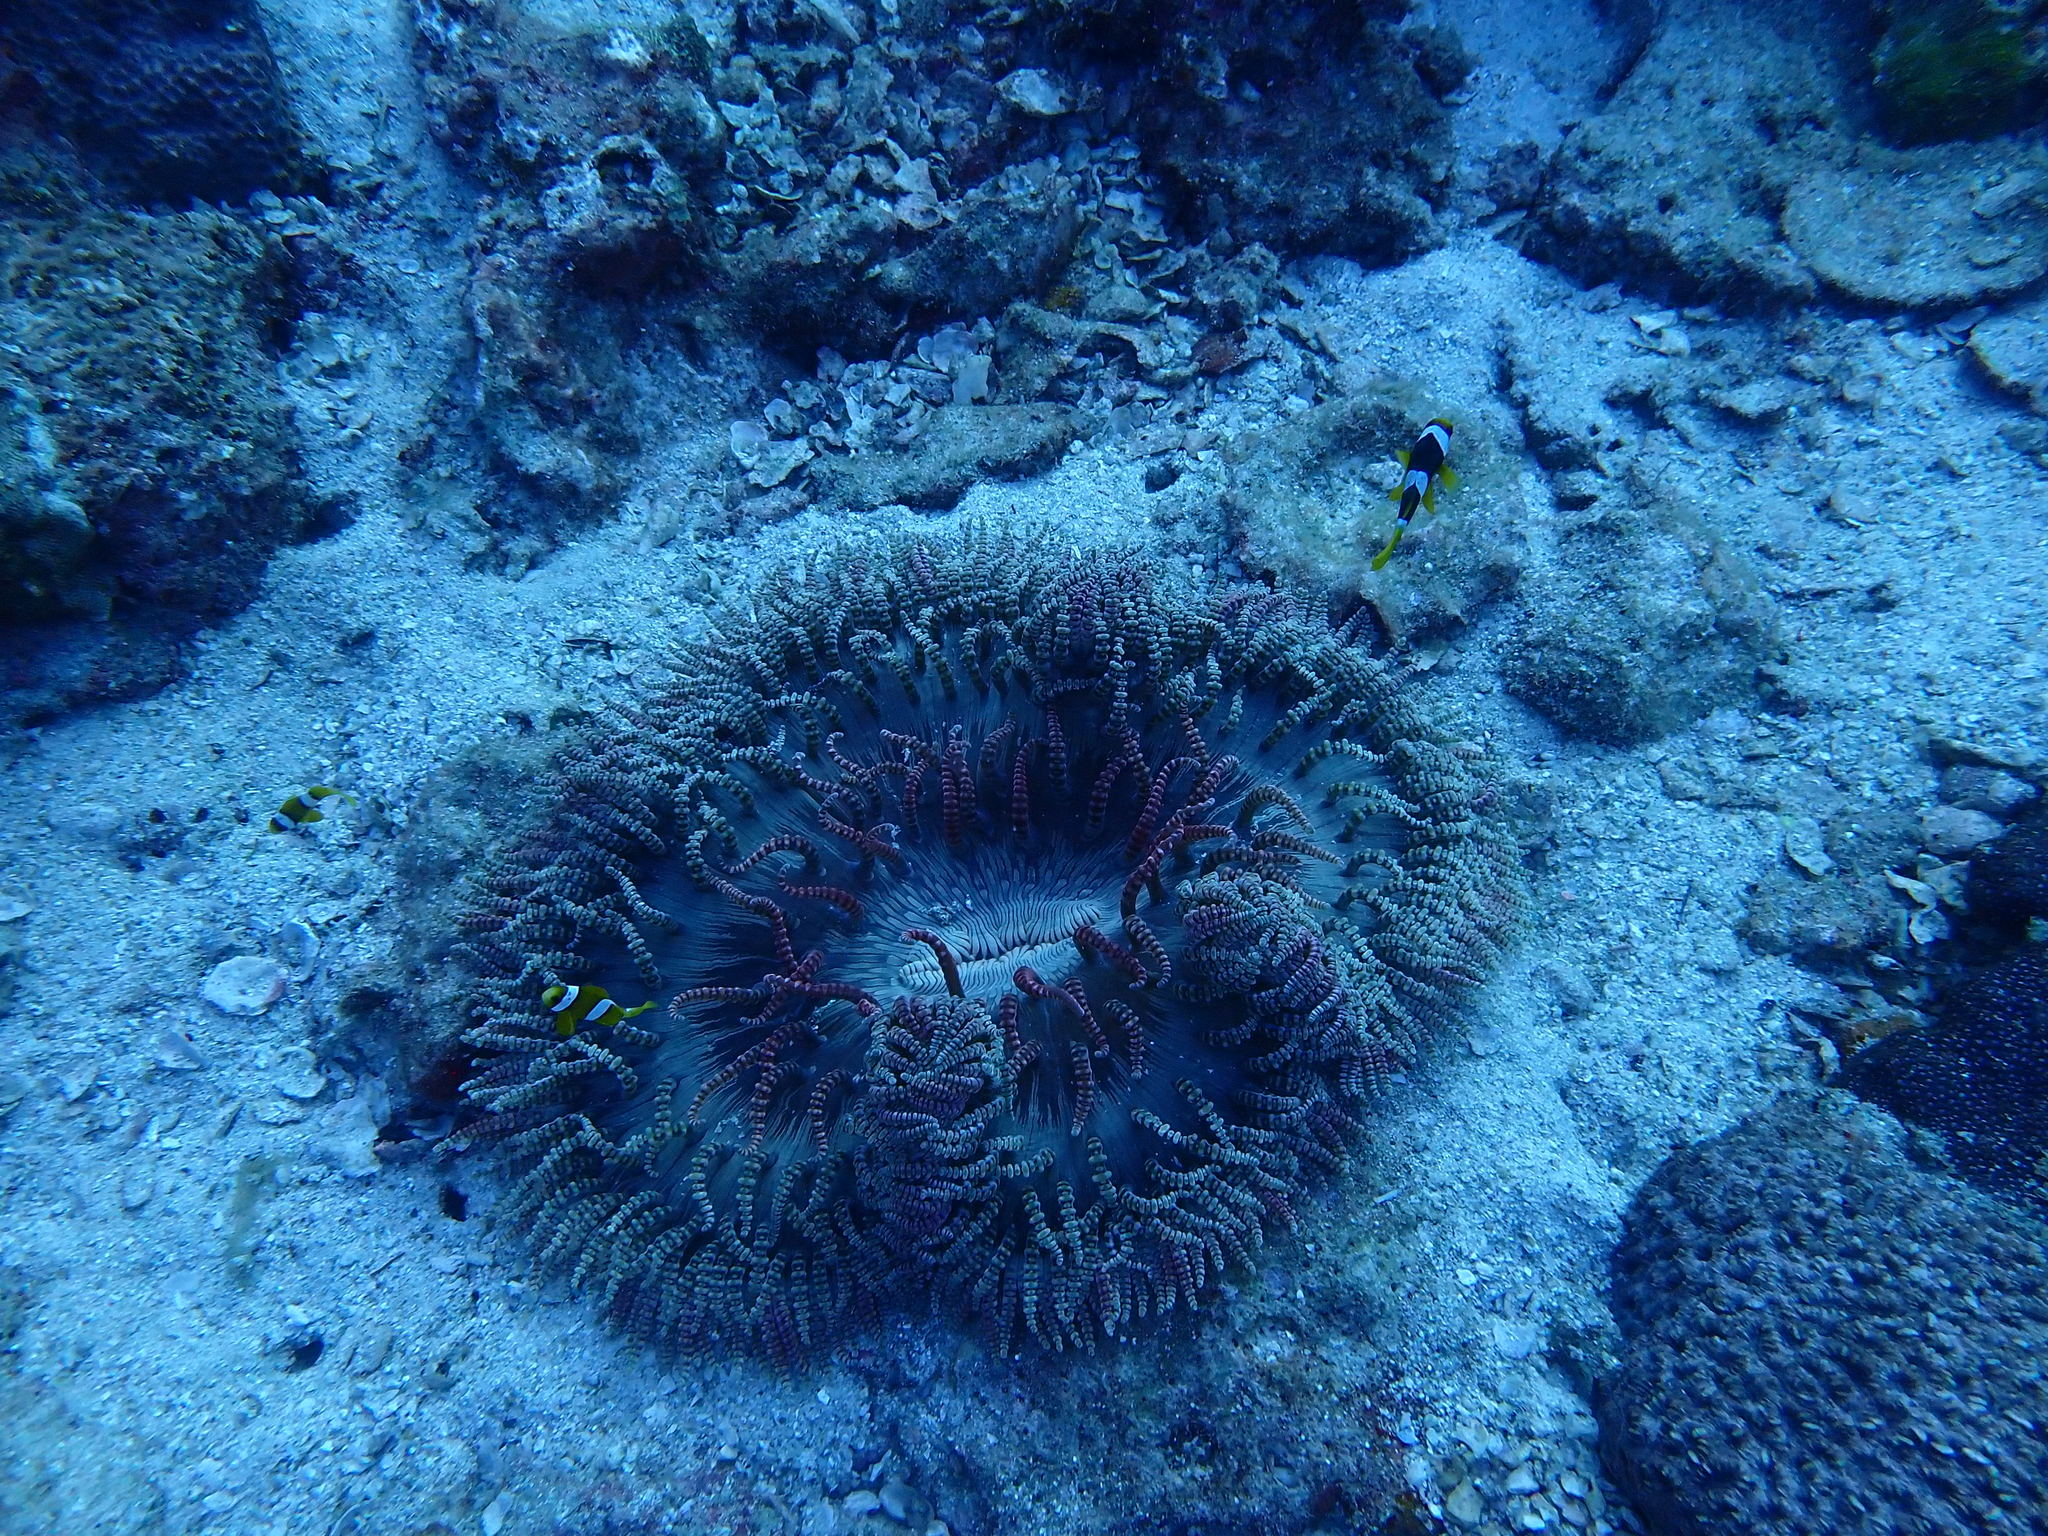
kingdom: Animalia
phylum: Cnidaria
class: Anthozoa
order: Actiniaria
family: Heteractidae
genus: Heteractis
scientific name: Heteractis aurora
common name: Beaded sea anemone
